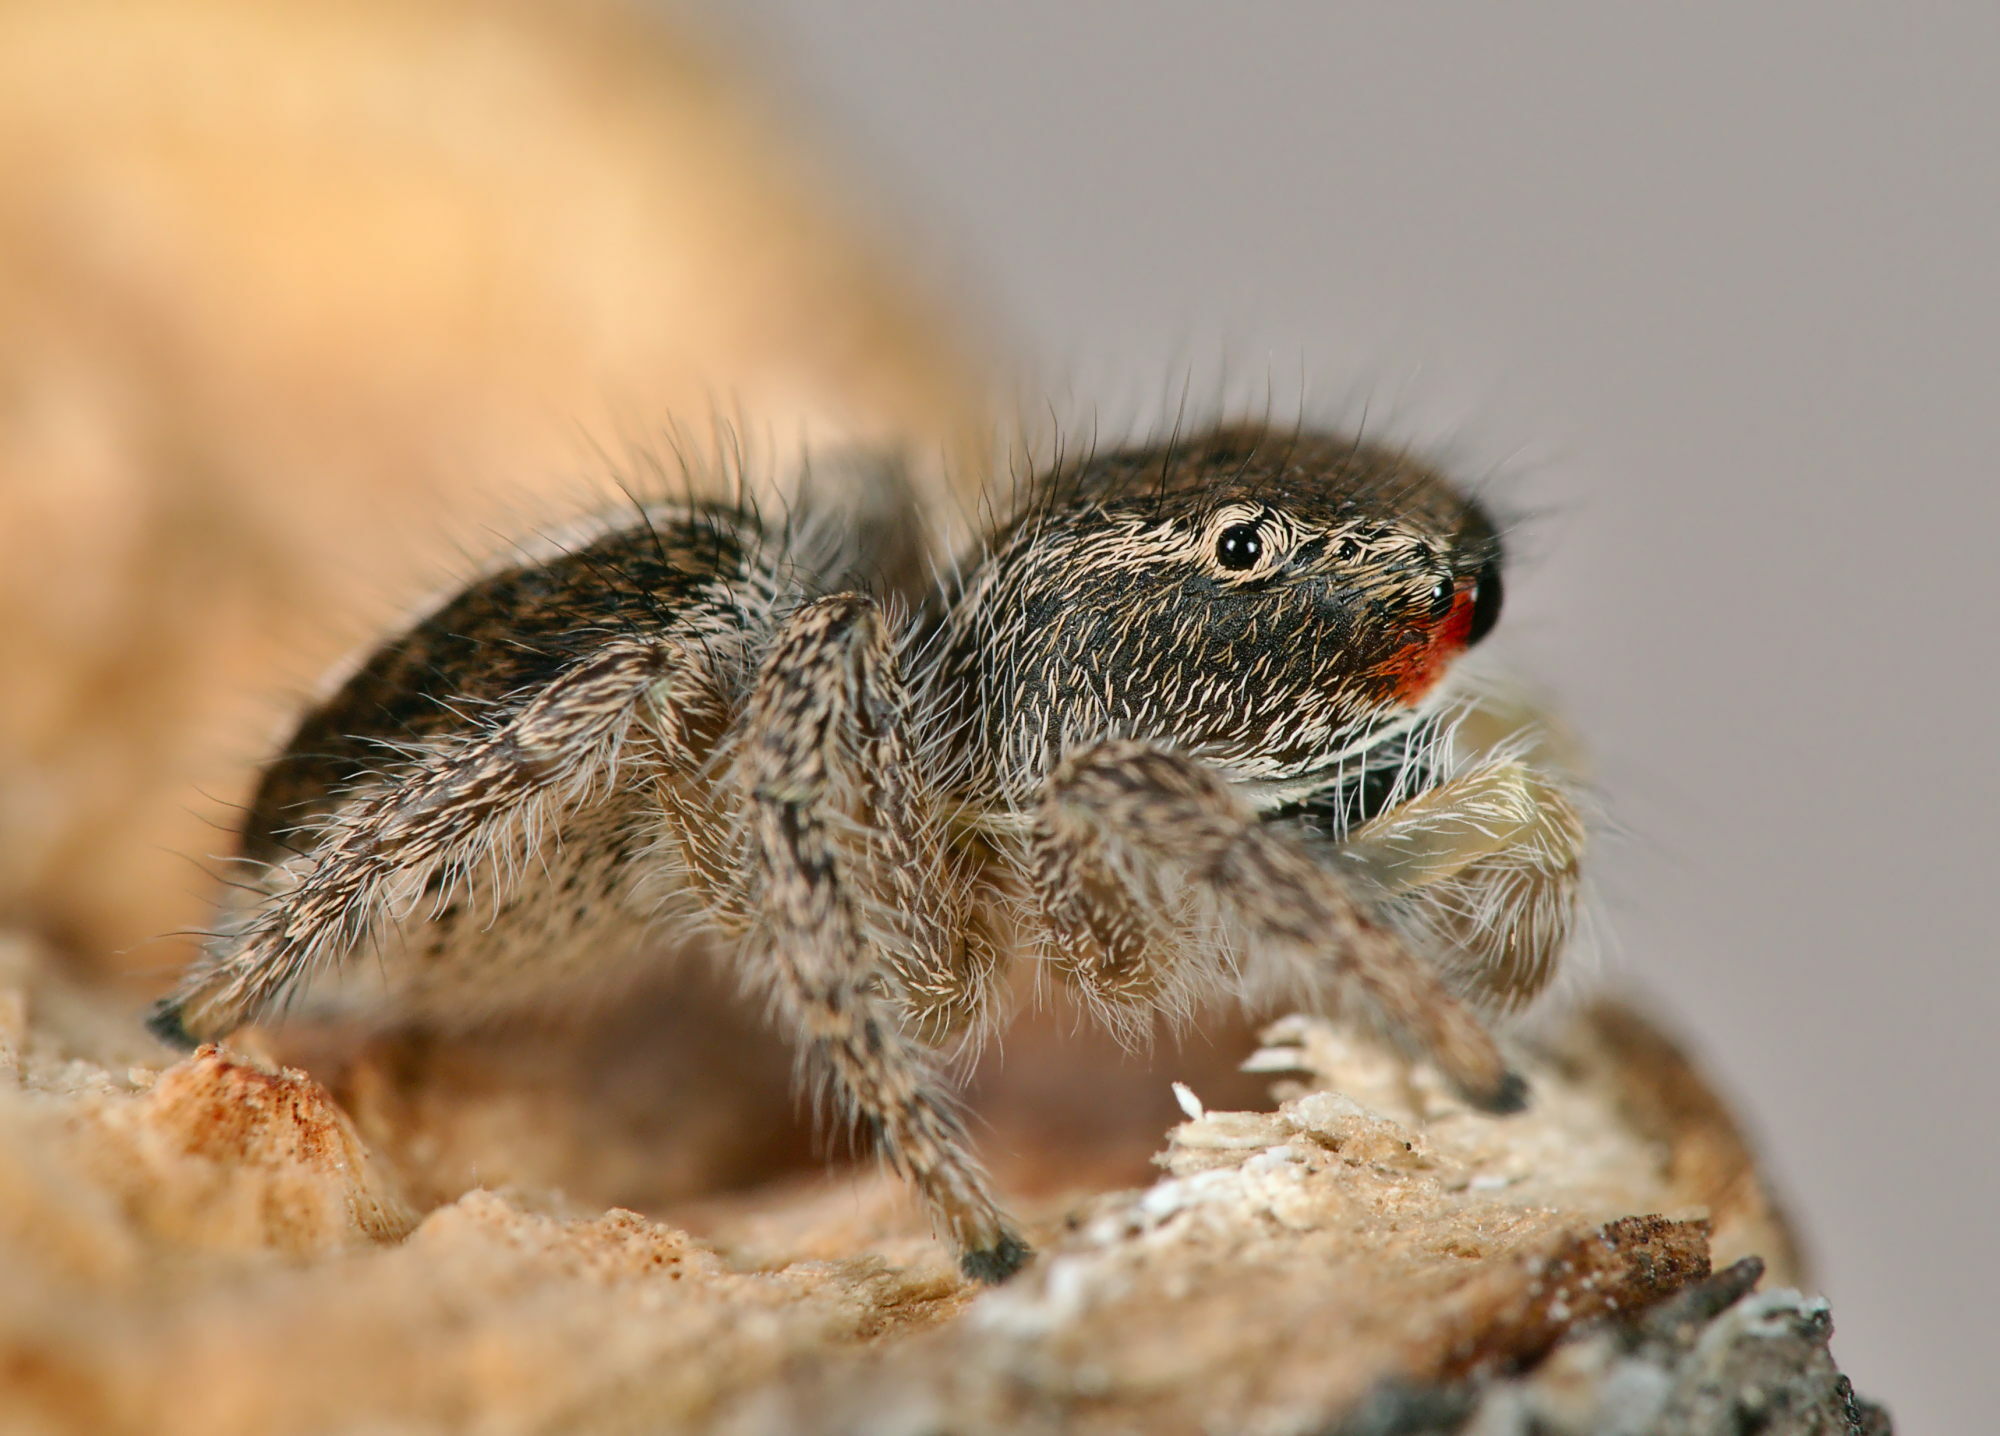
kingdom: Animalia
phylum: Arthropoda
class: Arachnida
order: Araneae
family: Salticidae
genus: Pellenes
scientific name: Pellenes seriatus
